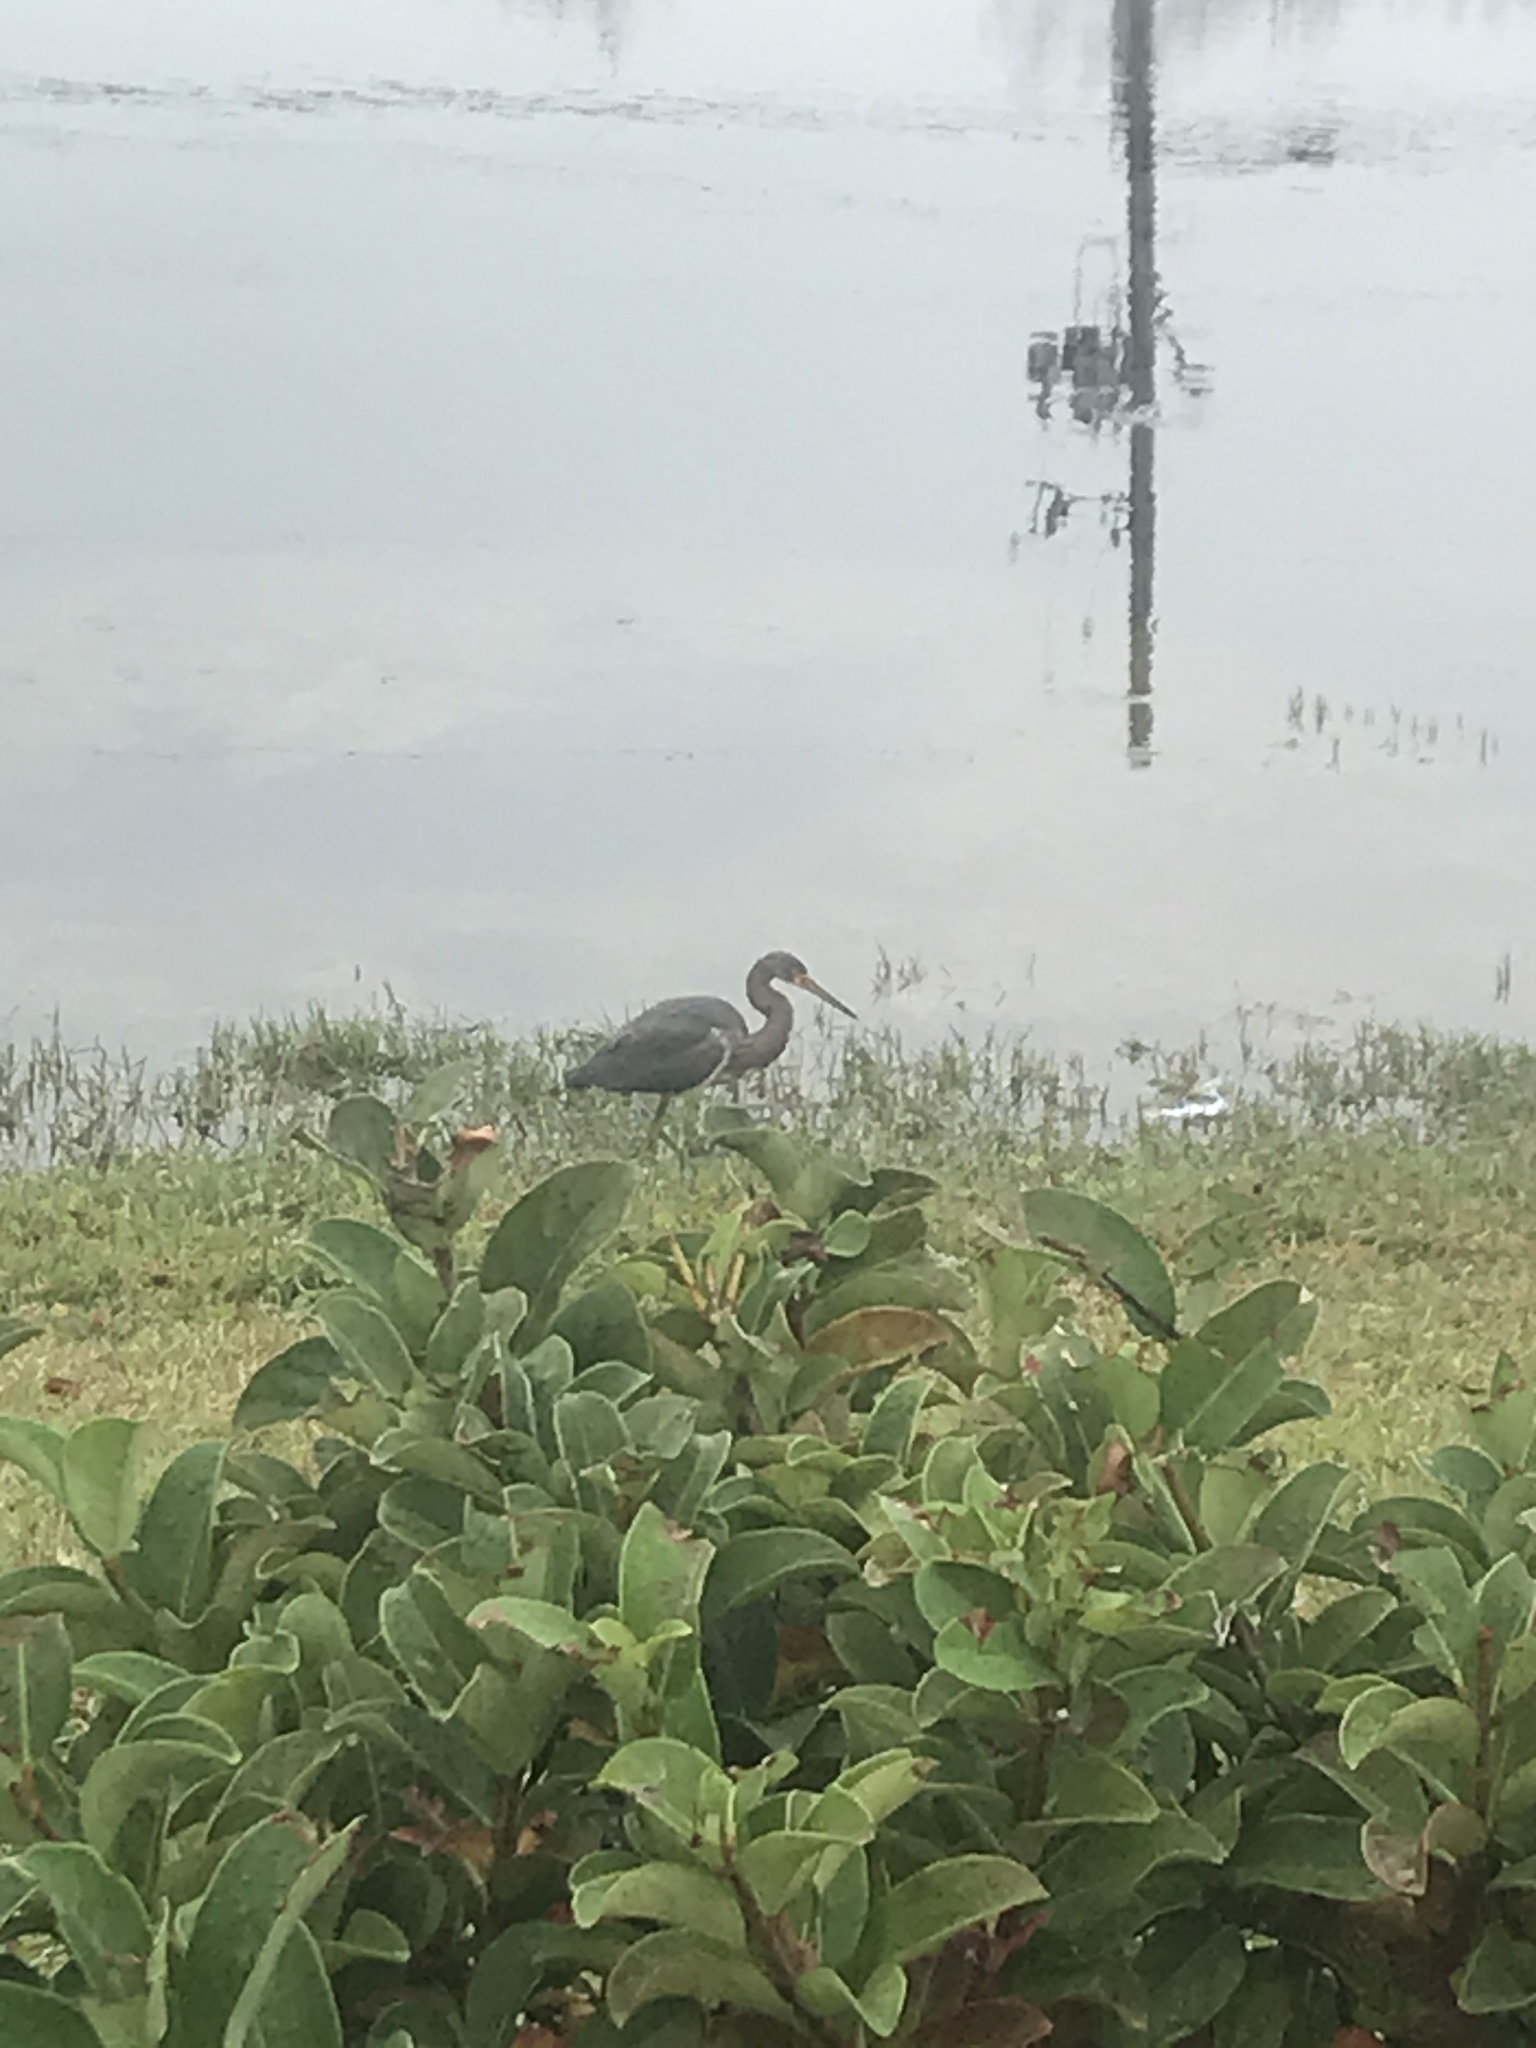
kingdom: Animalia
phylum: Chordata
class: Aves
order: Pelecaniformes
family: Ardeidae
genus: Egretta
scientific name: Egretta tricolor
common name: Tricolored heron
